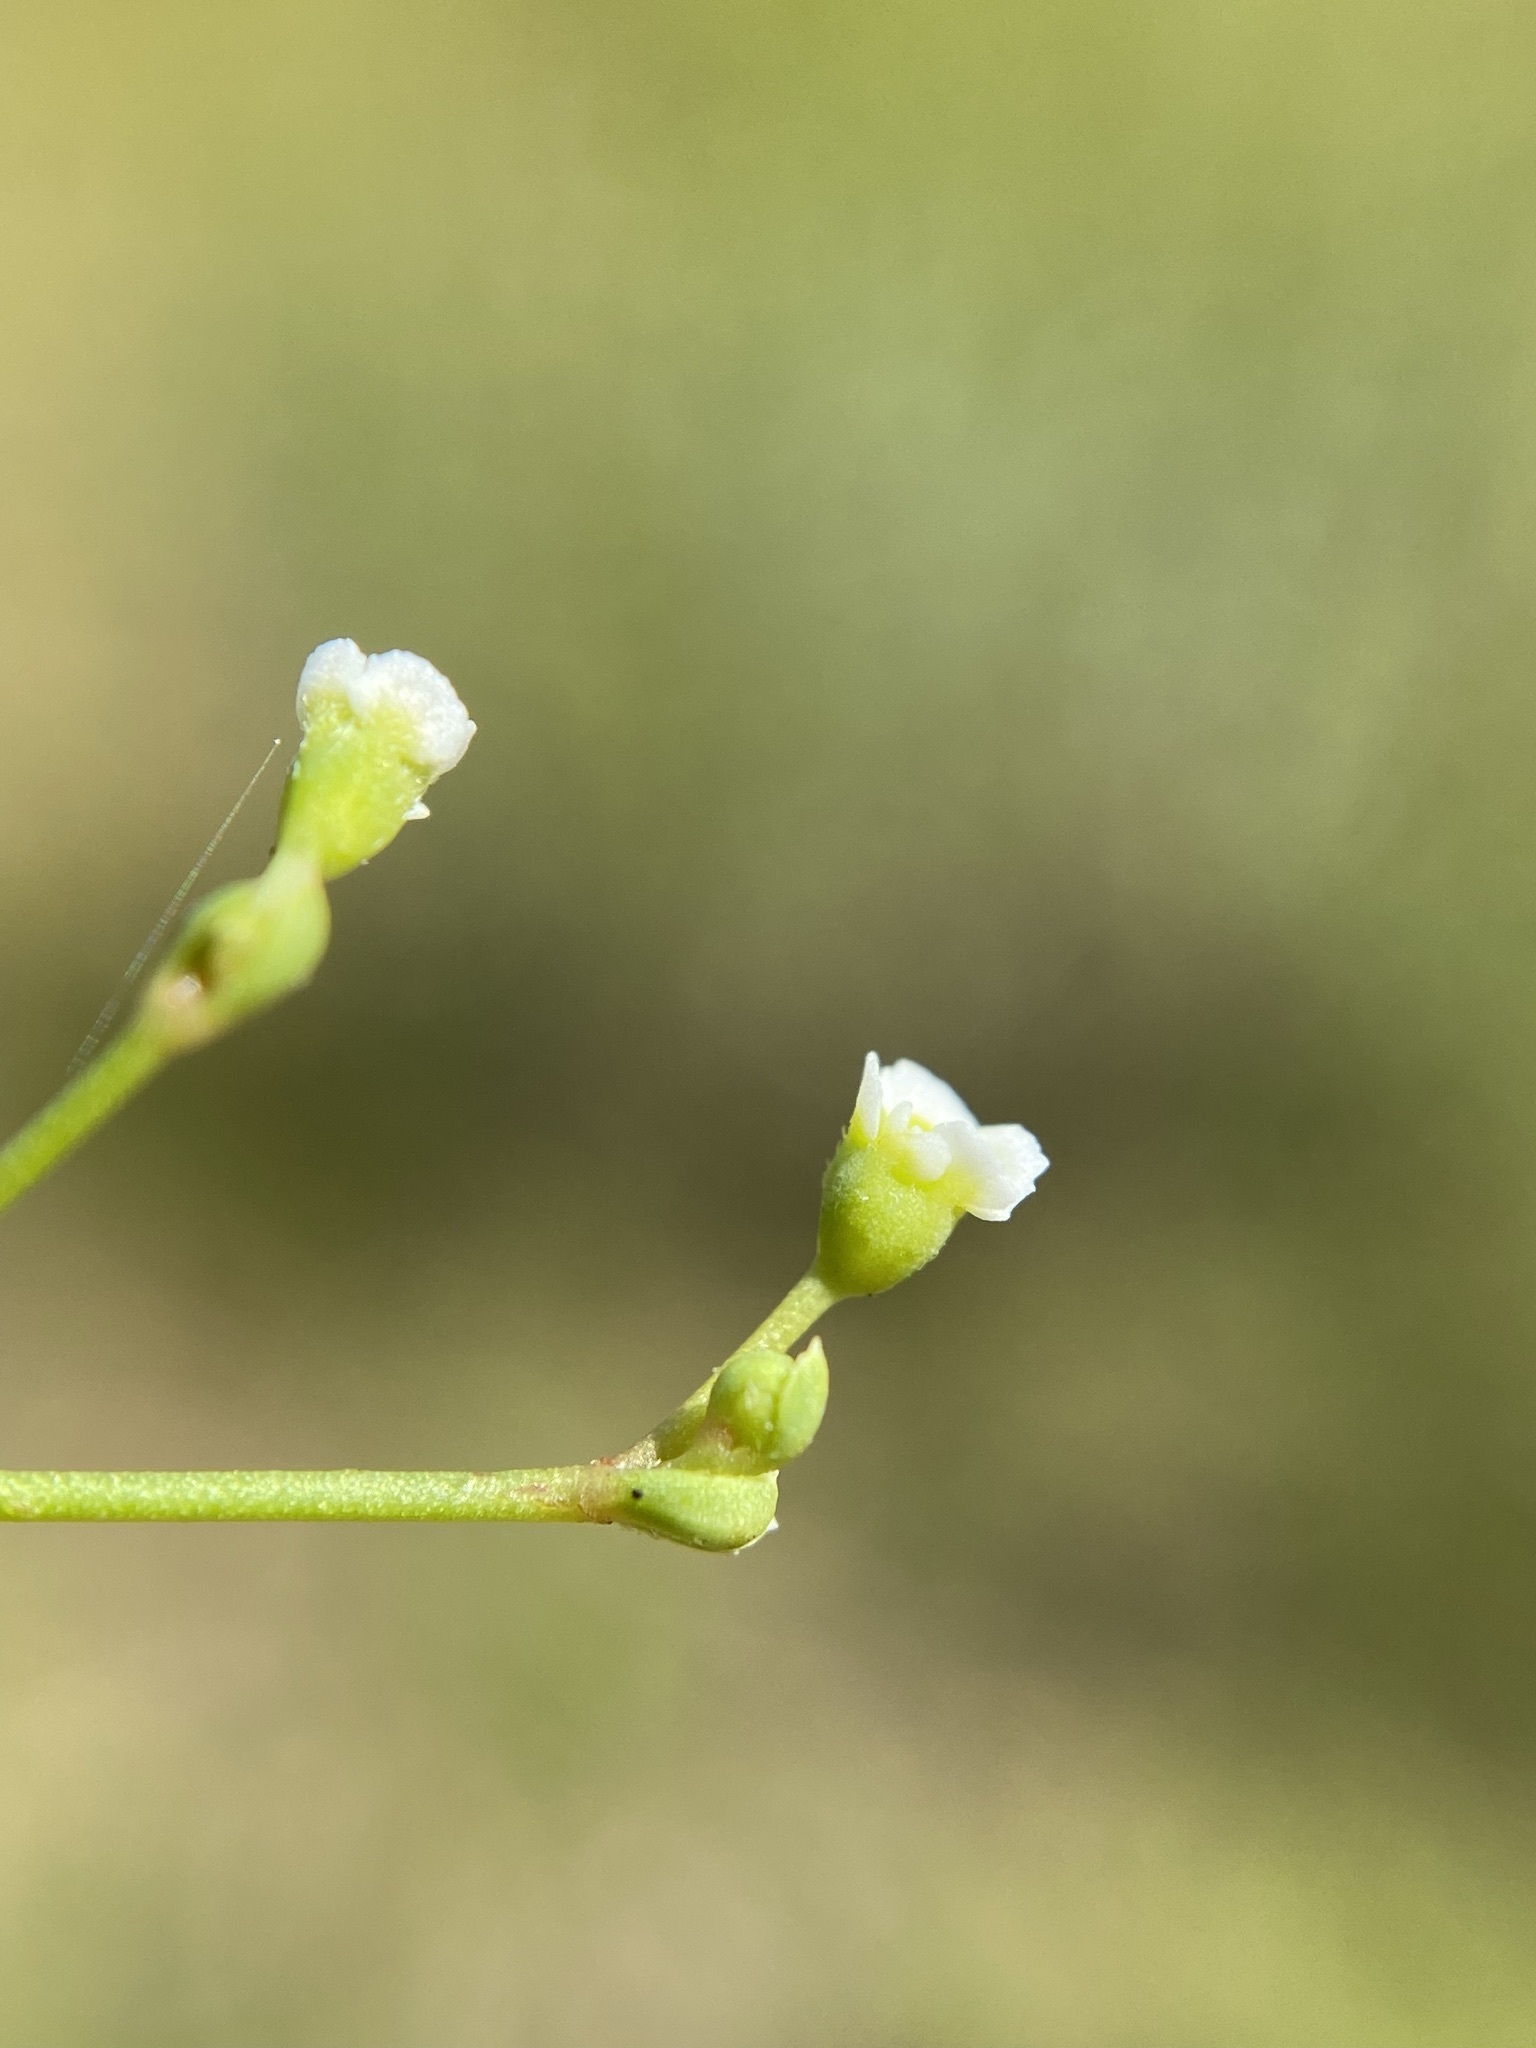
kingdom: Plantae
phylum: Tracheophyta
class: Magnoliopsida
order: Malpighiales
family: Euphorbiaceae
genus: Euphorbia
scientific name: Euphorbia discoidalis
